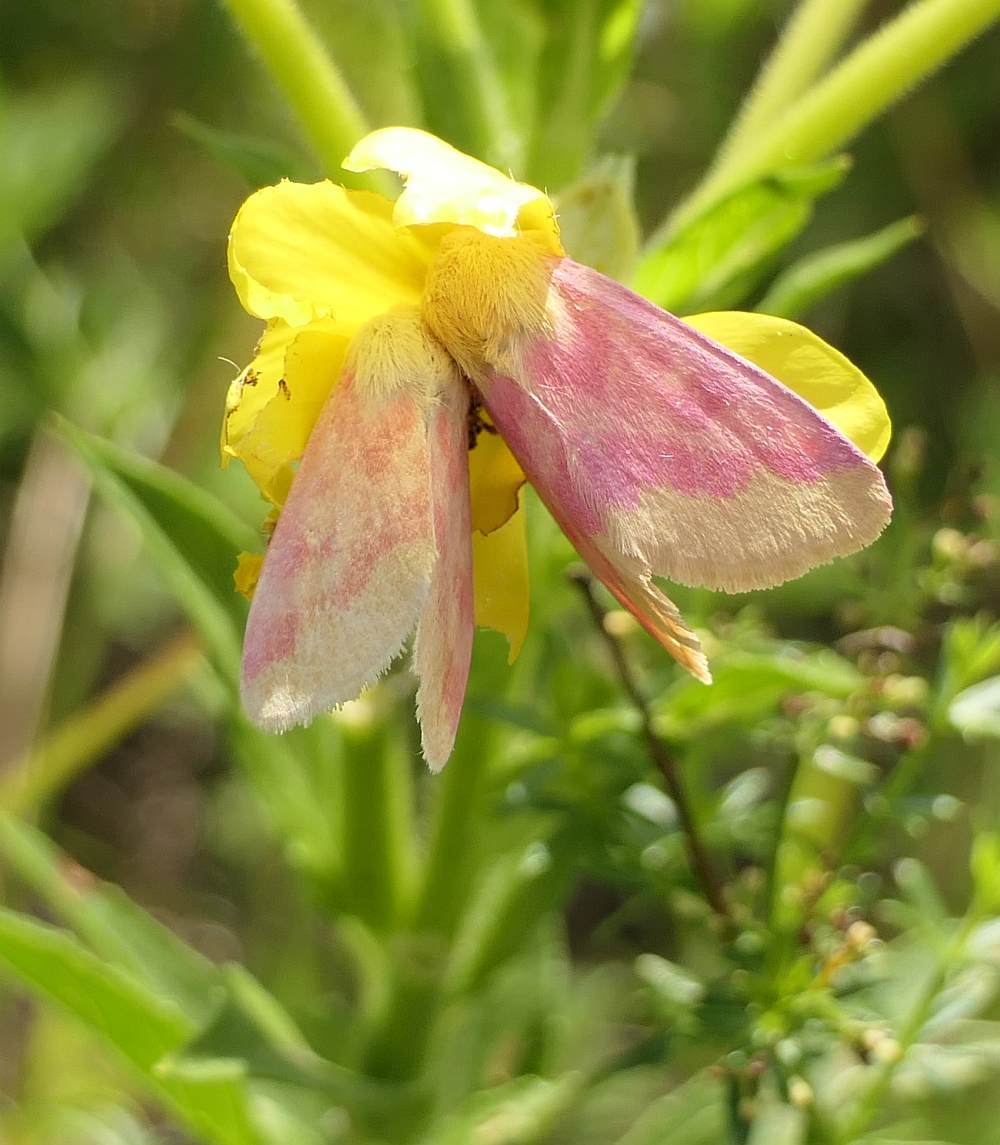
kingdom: Animalia
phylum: Arthropoda
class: Insecta
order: Lepidoptera
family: Noctuidae
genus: Schinia
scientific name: Schinia florida
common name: Primrose moth
